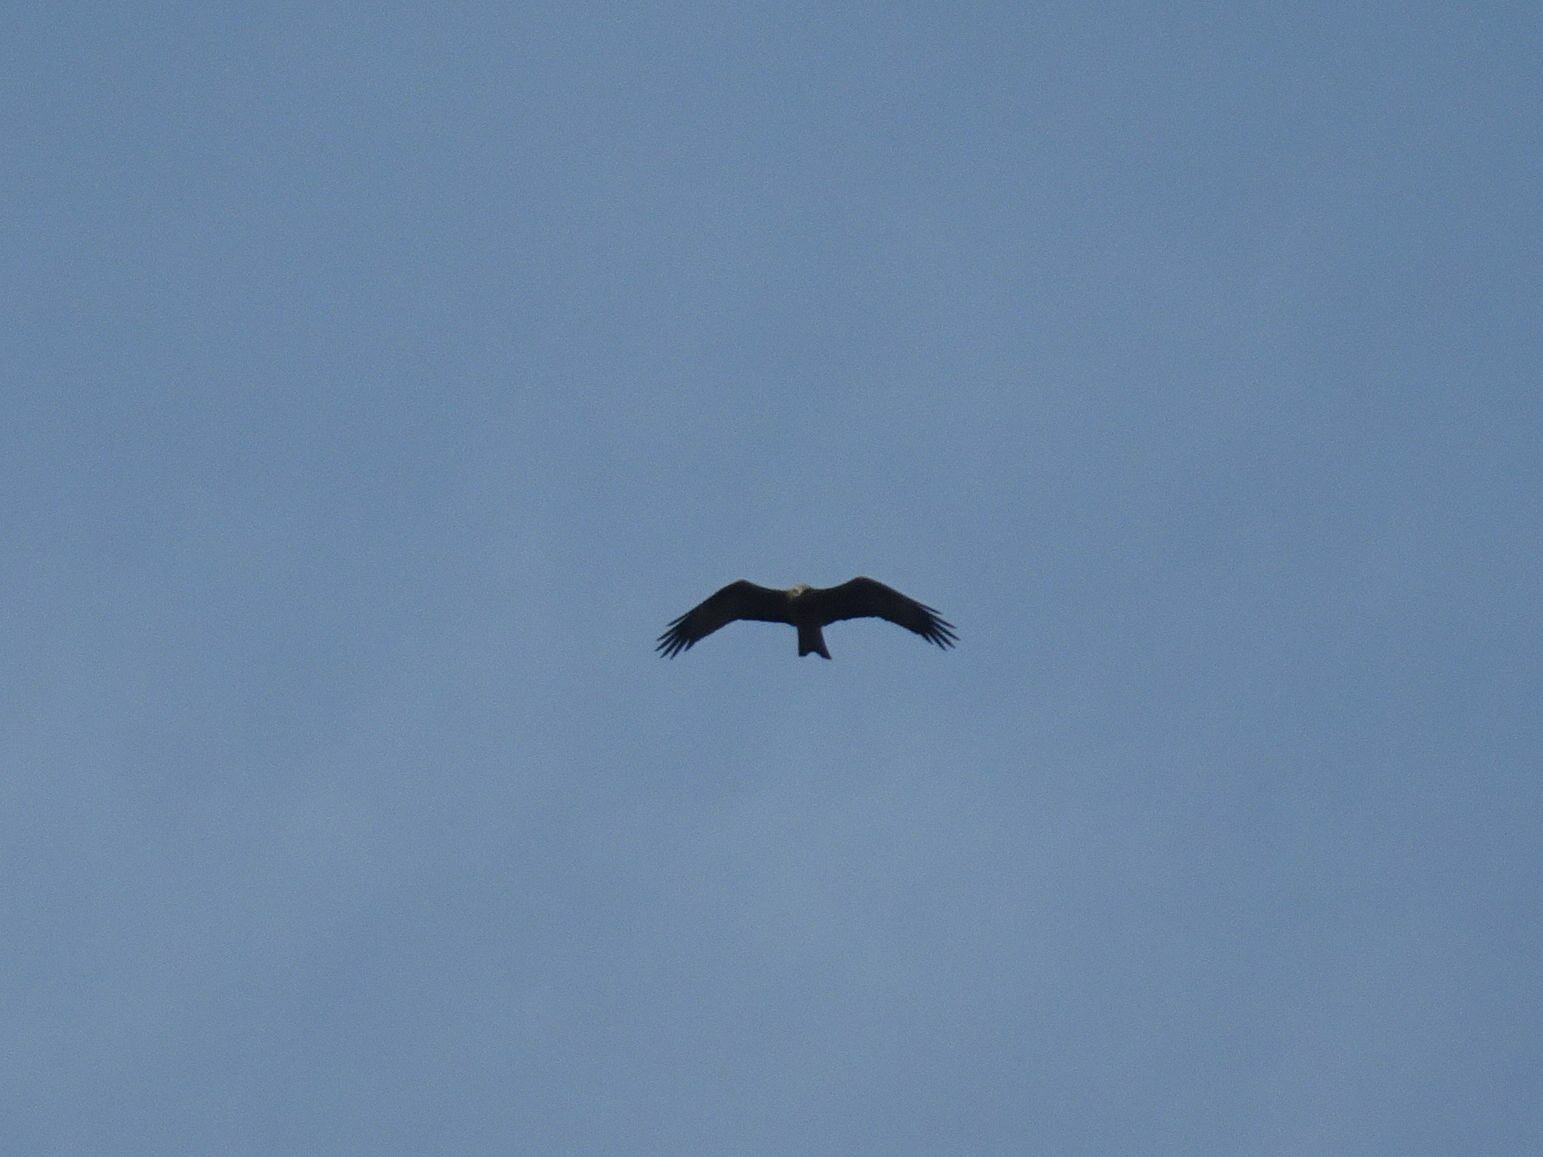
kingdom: Animalia
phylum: Chordata
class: Aves
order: Accipitriformes
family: Accipitridae
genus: Milvus
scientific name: Milvus migrans
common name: Black kite
